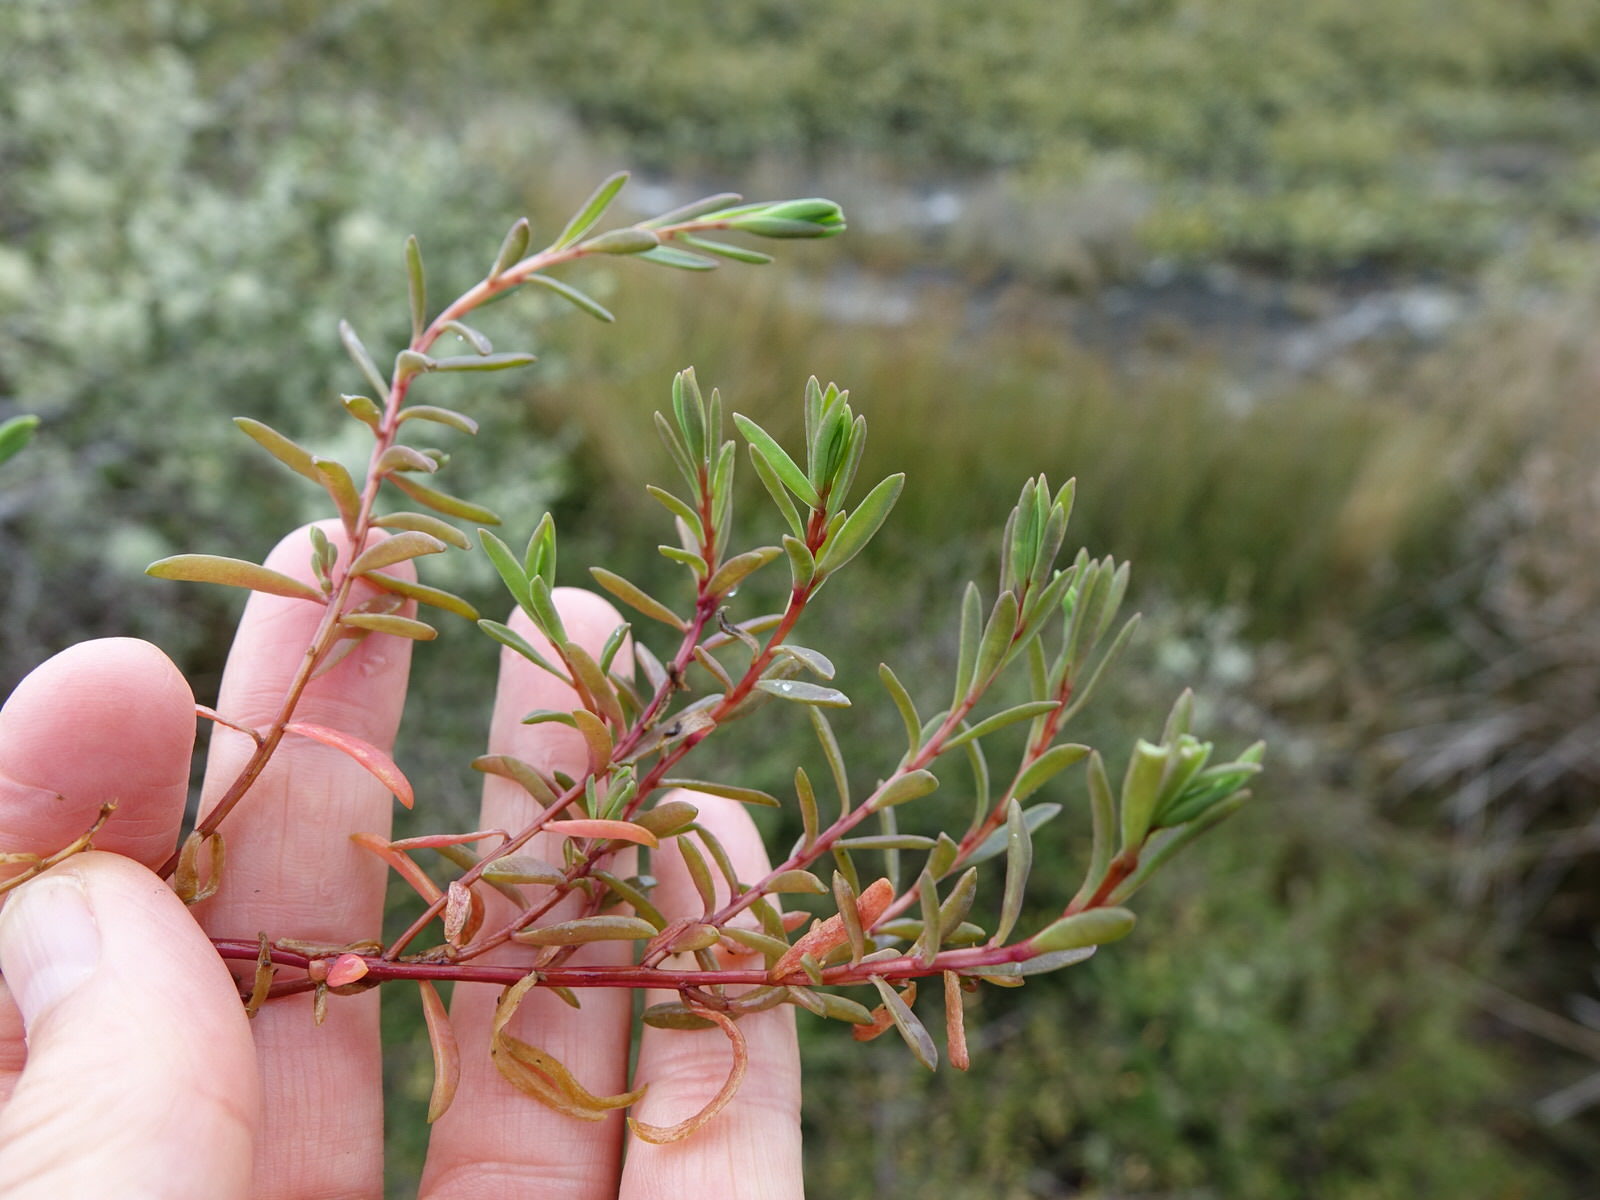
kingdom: Plantae
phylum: Tracheophyta
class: Magnoliopsida
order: Caryophyllales
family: Amaranthaceae
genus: Suaeda
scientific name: Suaeda novae-zelandiae
